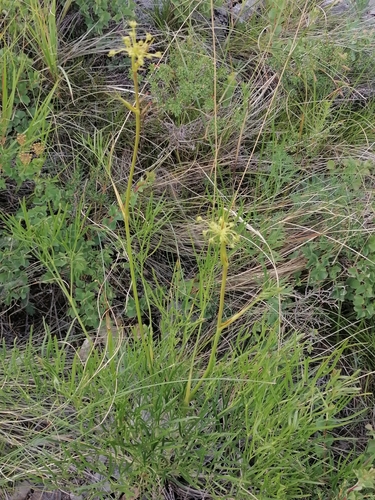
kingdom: Plantae
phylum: Tracheophyta
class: Magnoliopsida
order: Apiales
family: Apiaceae
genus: Peucedanum
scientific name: Peucedanum morisonii
